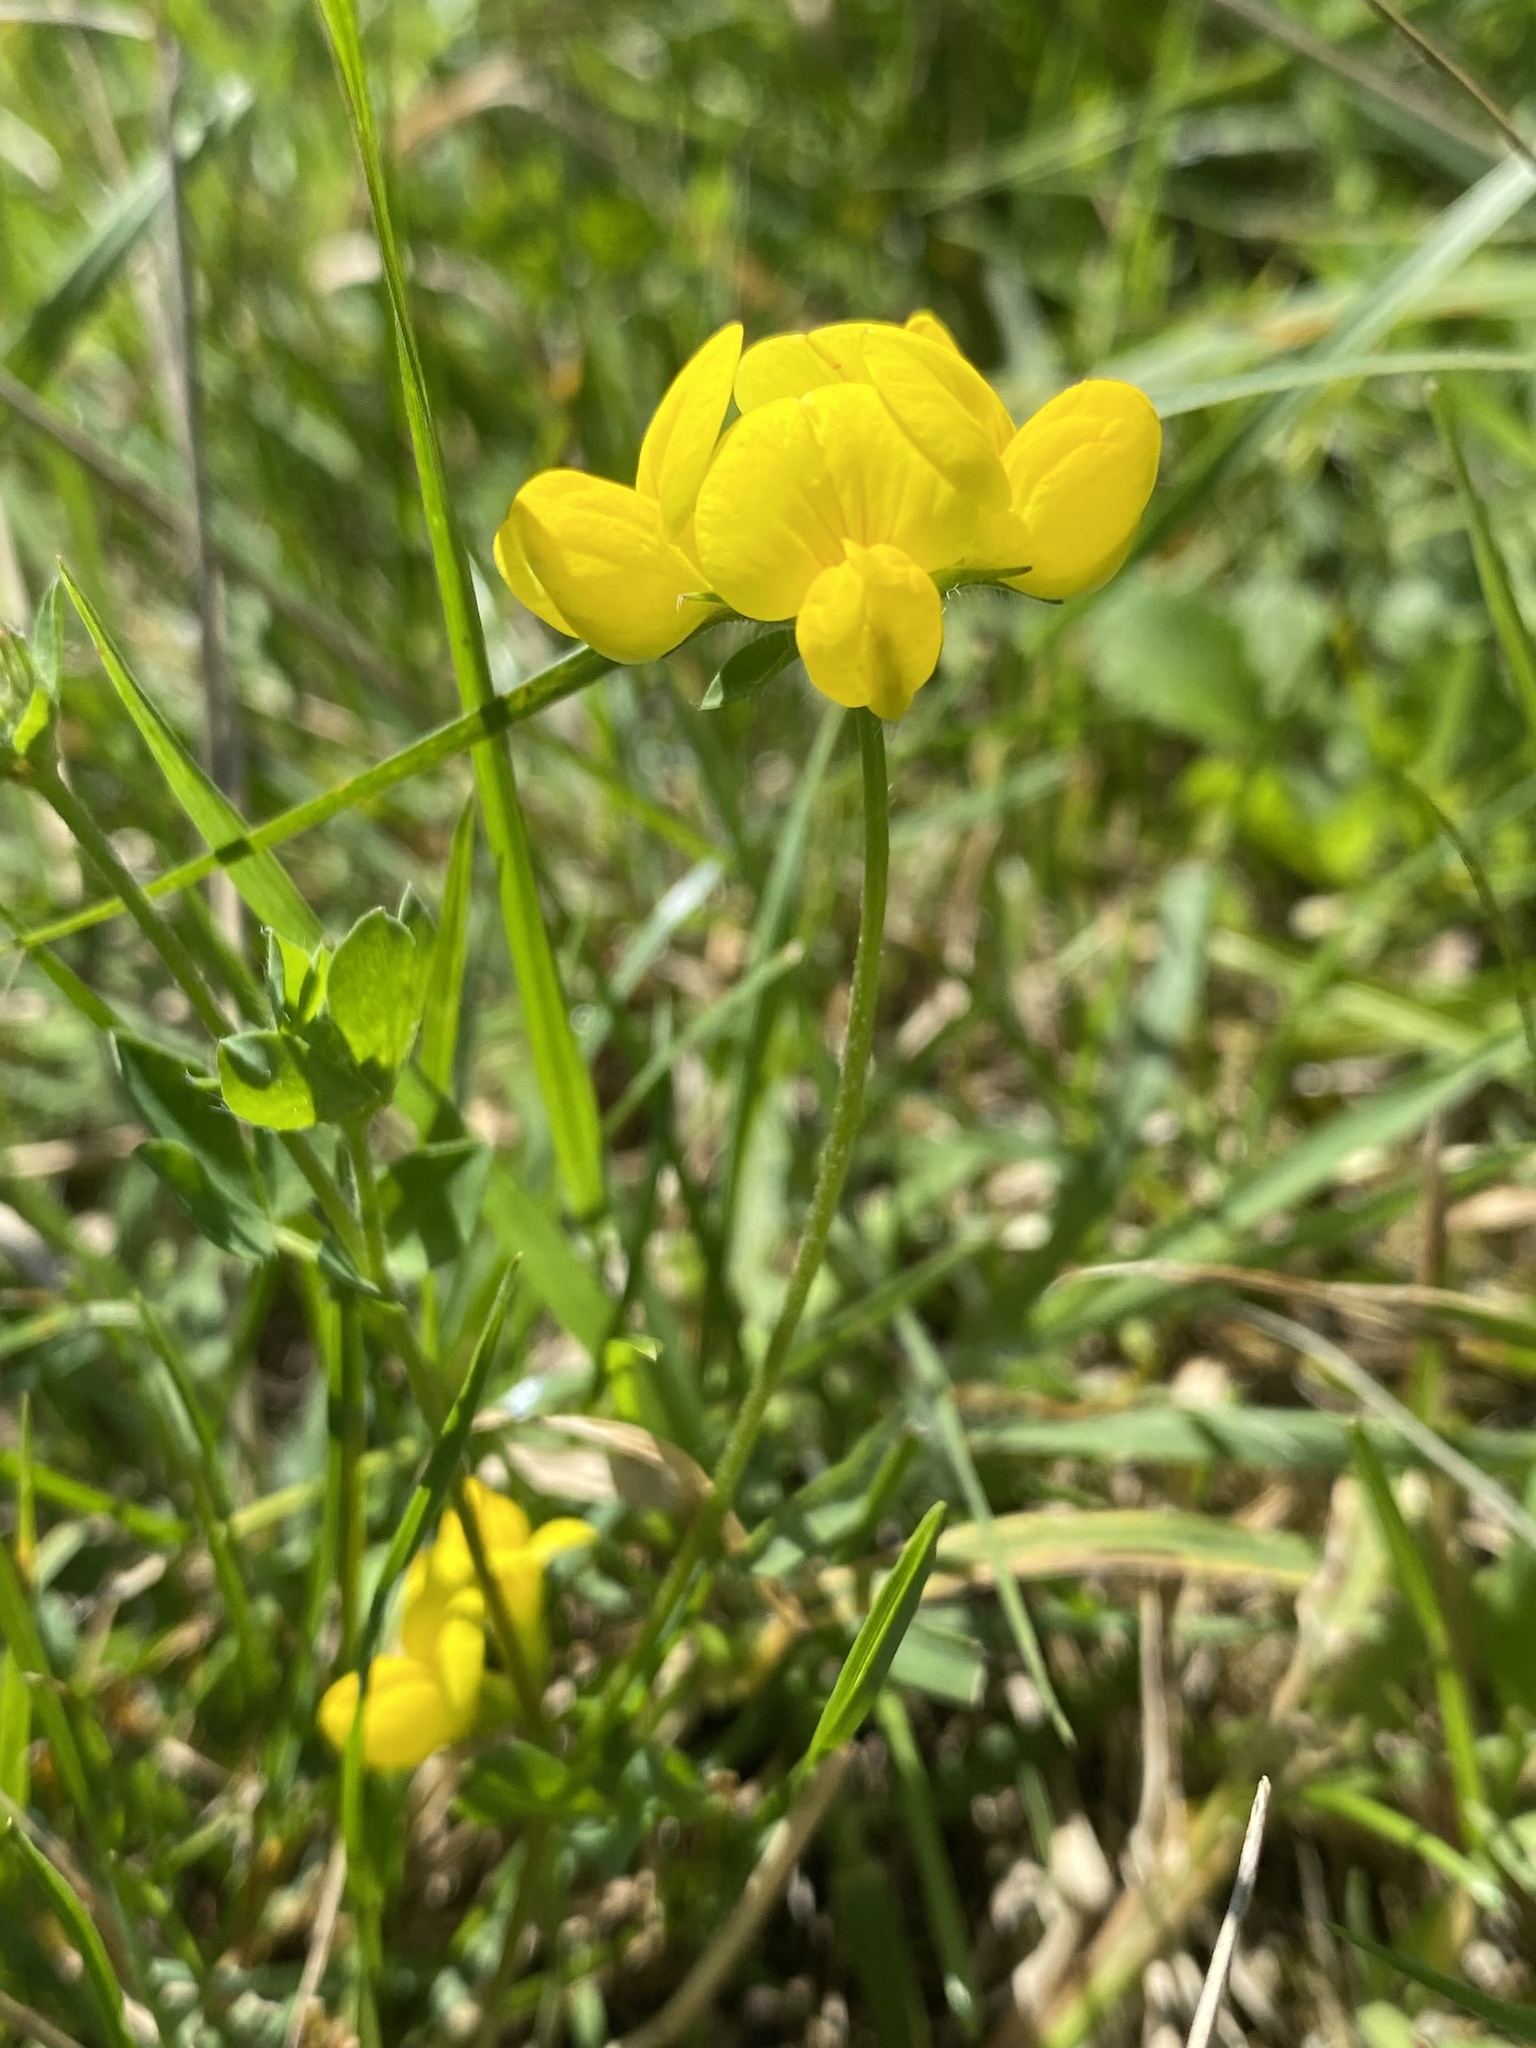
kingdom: Plantae
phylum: Tracheophyta
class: Magnoliopsida
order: Fabales
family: Fabaceae
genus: Lotus
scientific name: Lotus corniculatus
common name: Common bird's-foot-trefoil
